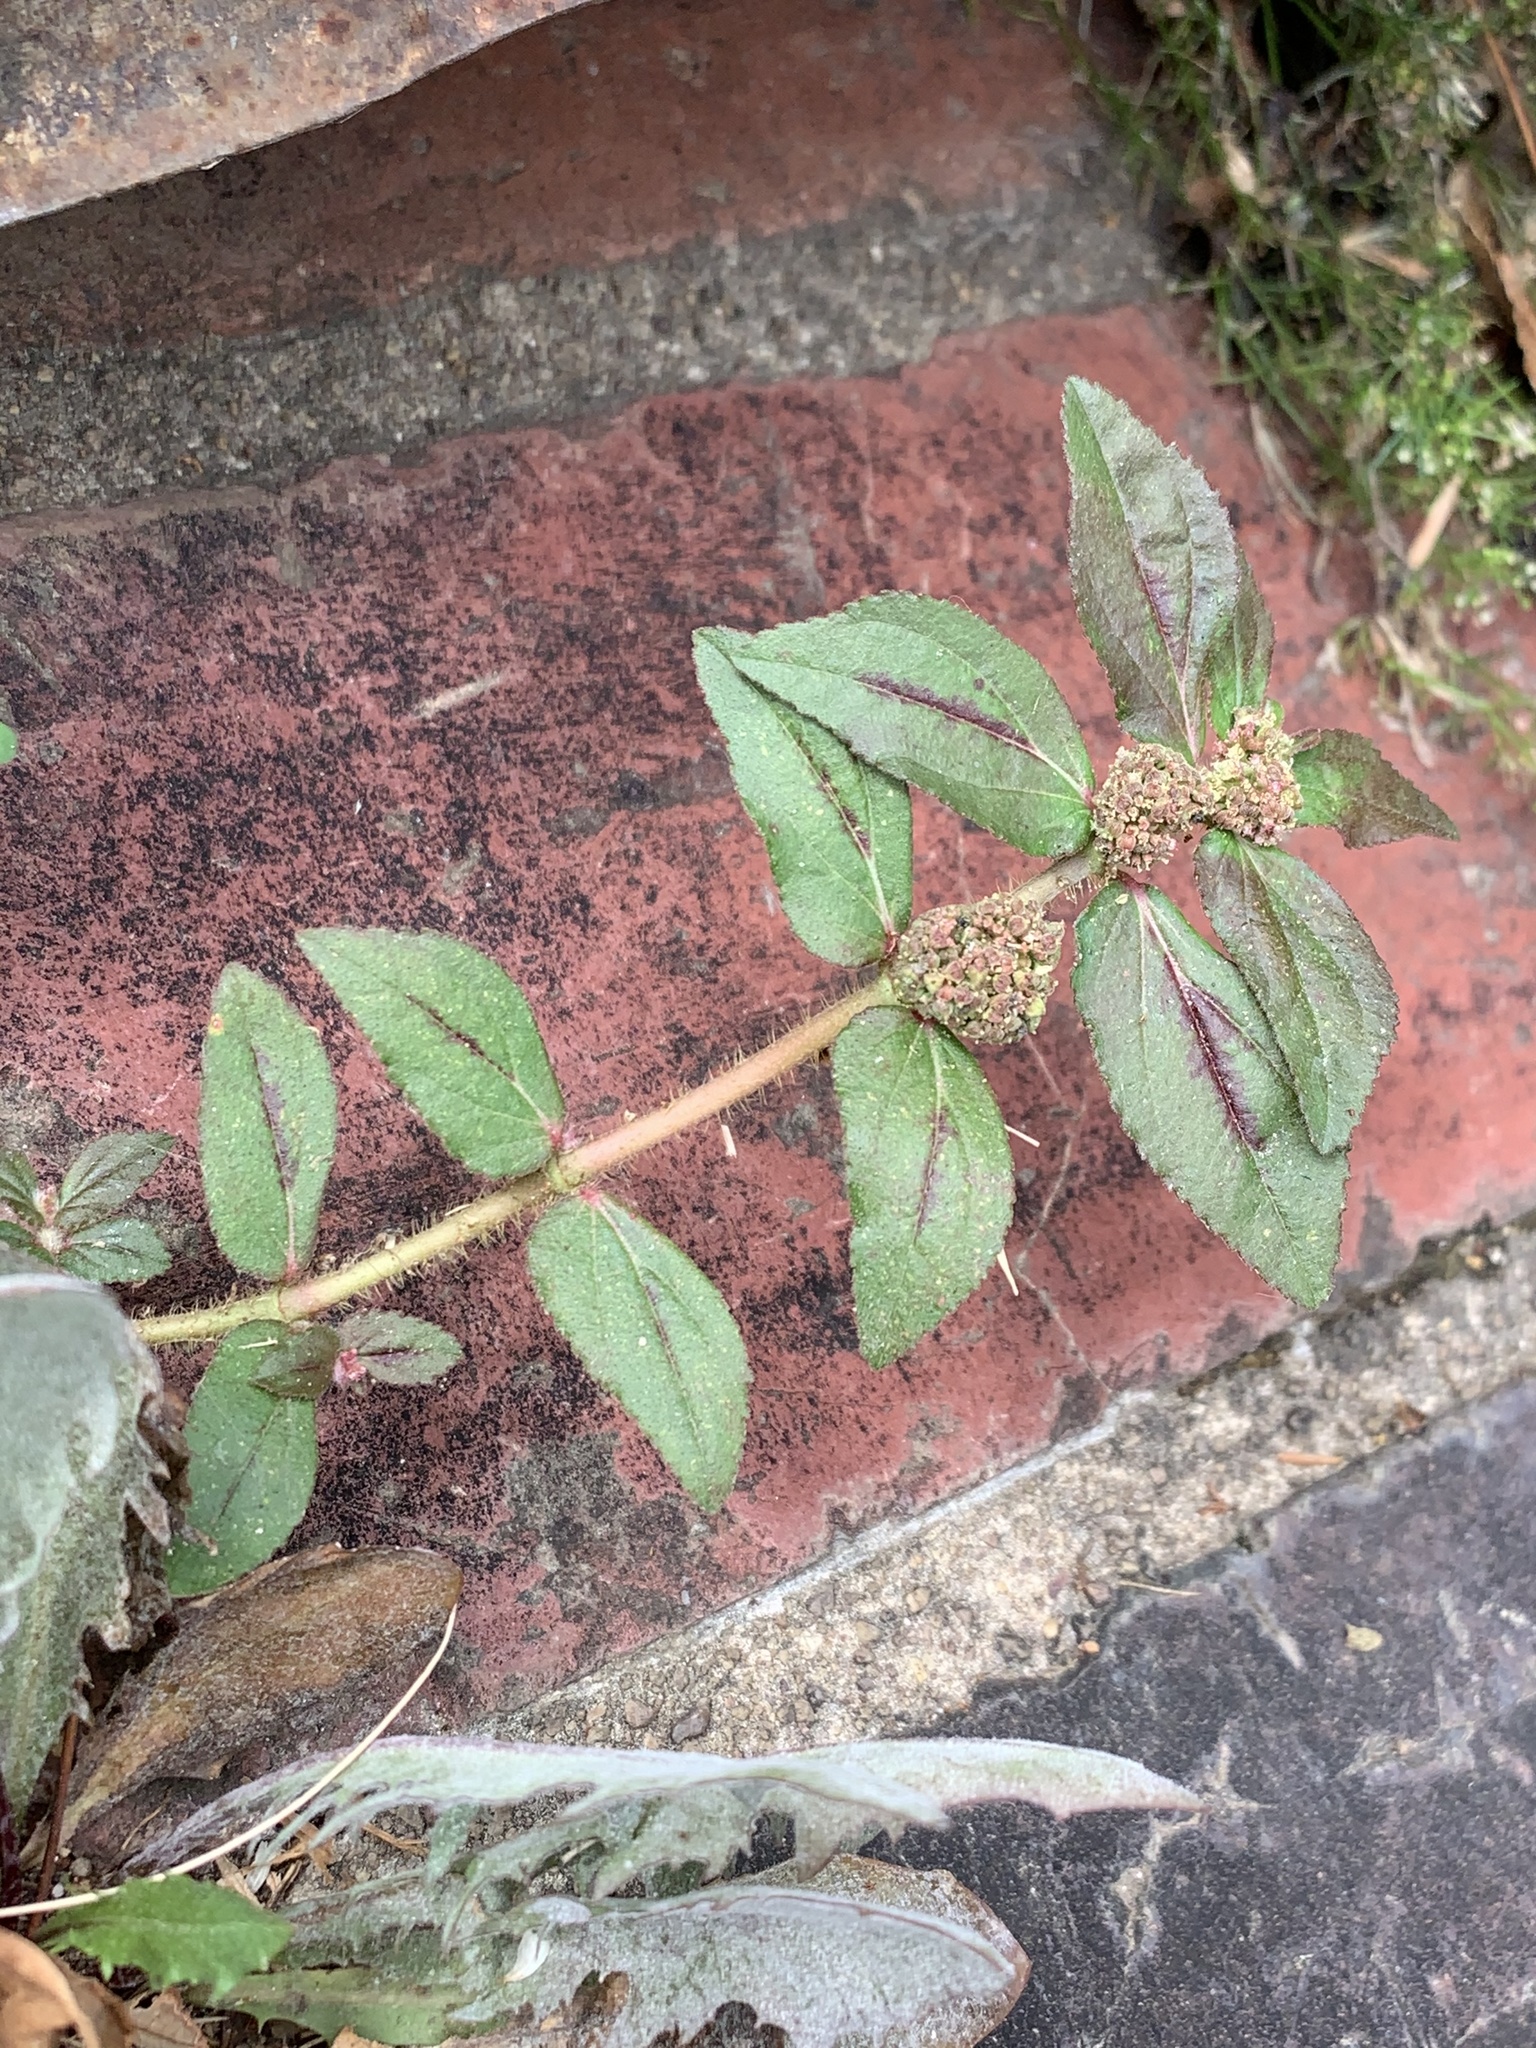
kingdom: Plantae
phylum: Tracheophyta
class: Magnoliopsida
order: Malpighiales
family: Euphorbiaceae
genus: Euphorbia
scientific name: Euphorbia hirta
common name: Pillpod sandmat
